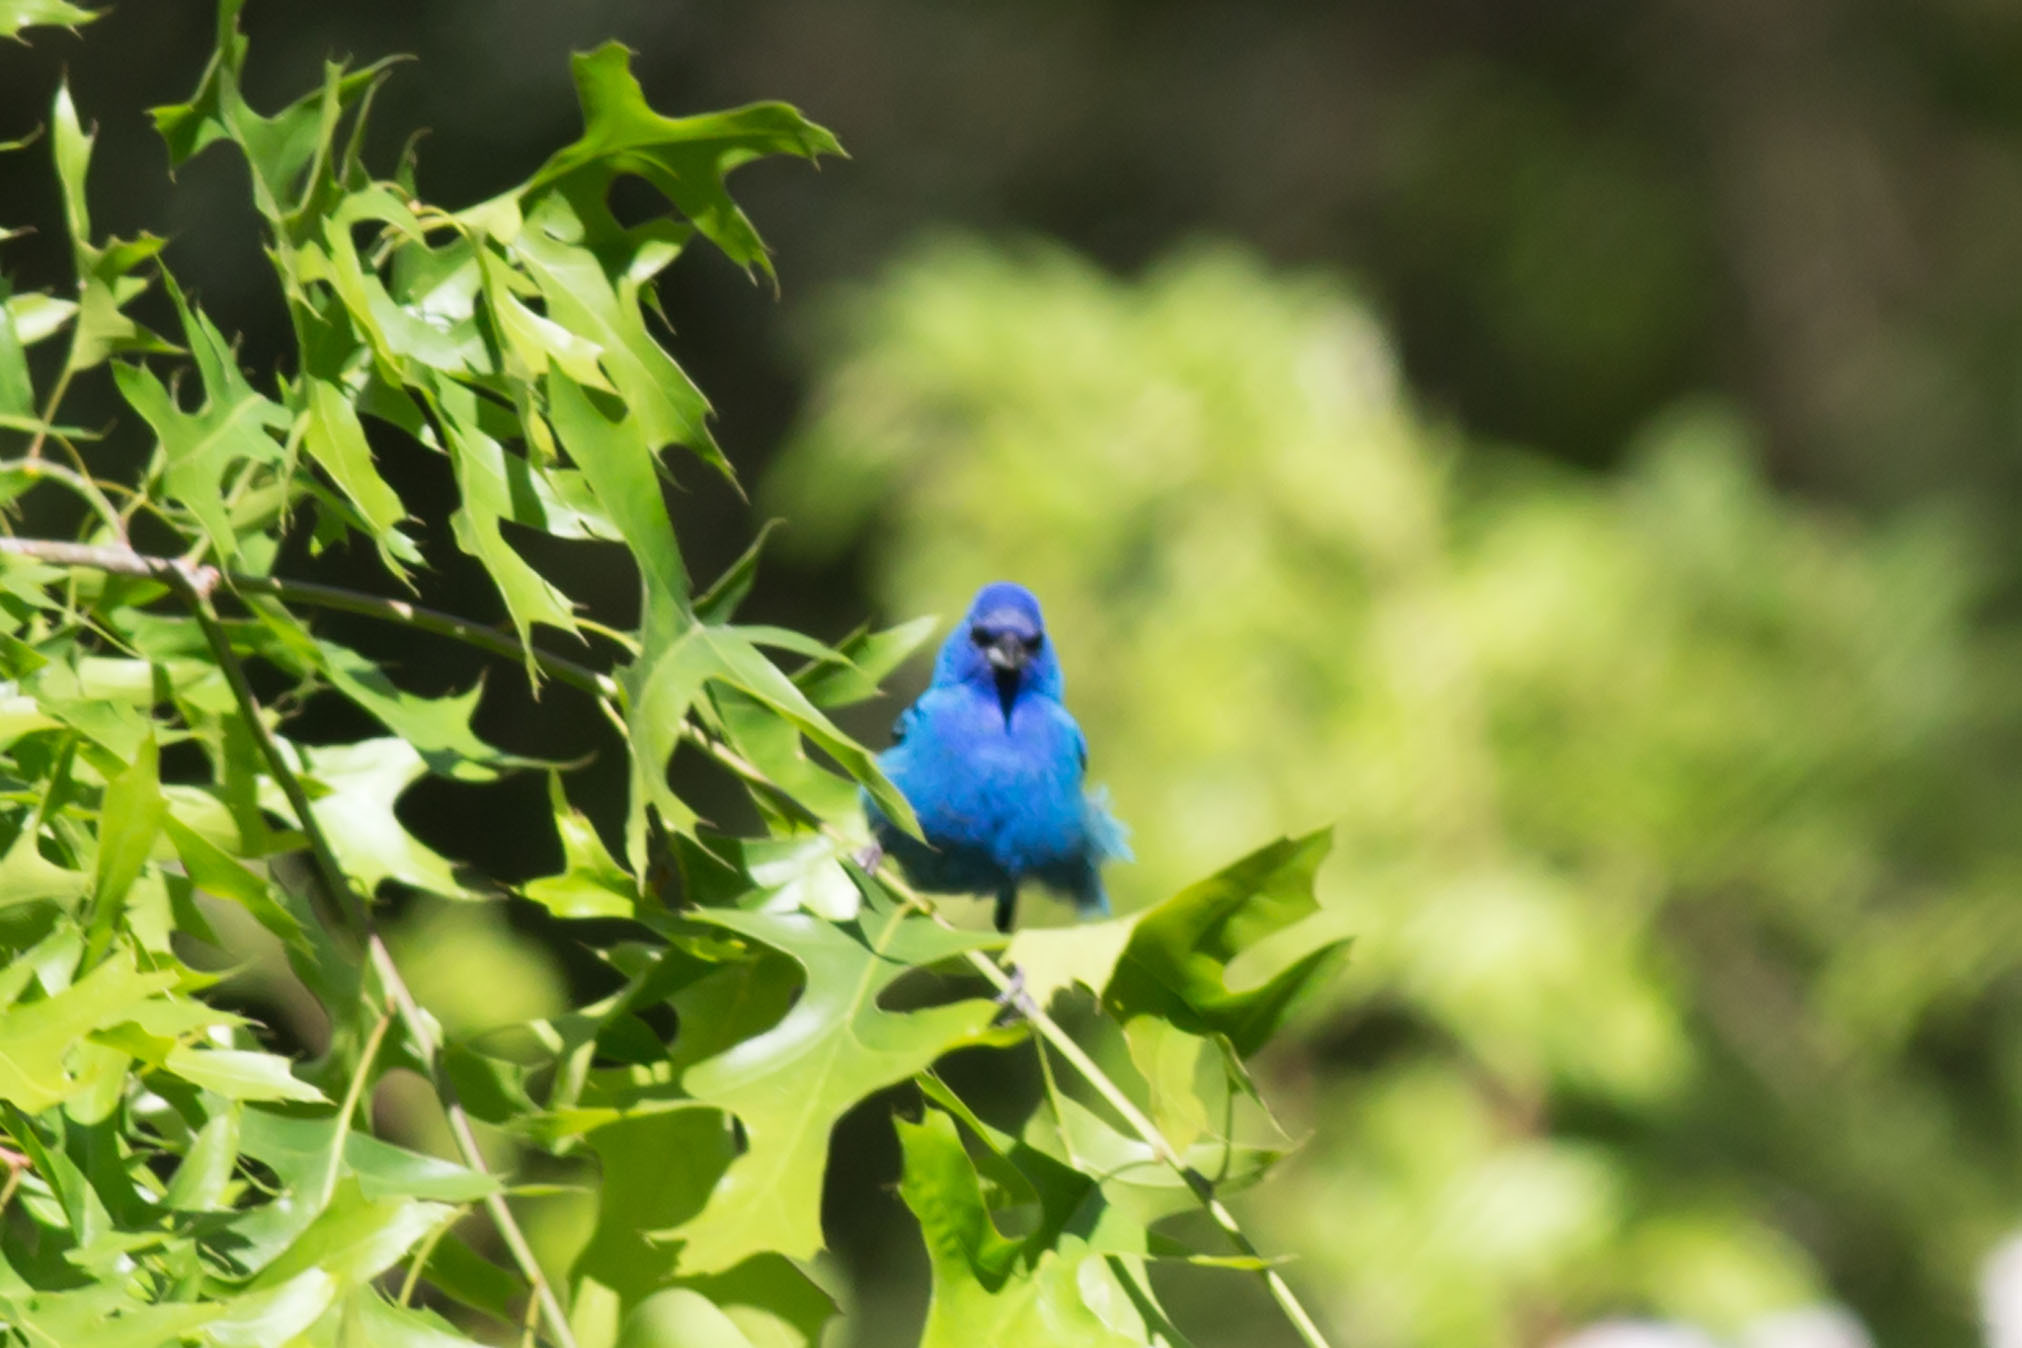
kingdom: Animalia
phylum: Chordata
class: Aves
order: Passeriformes
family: Cardinalidae
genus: Passerina
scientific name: Passerina cyanea
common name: Indigo bunting
